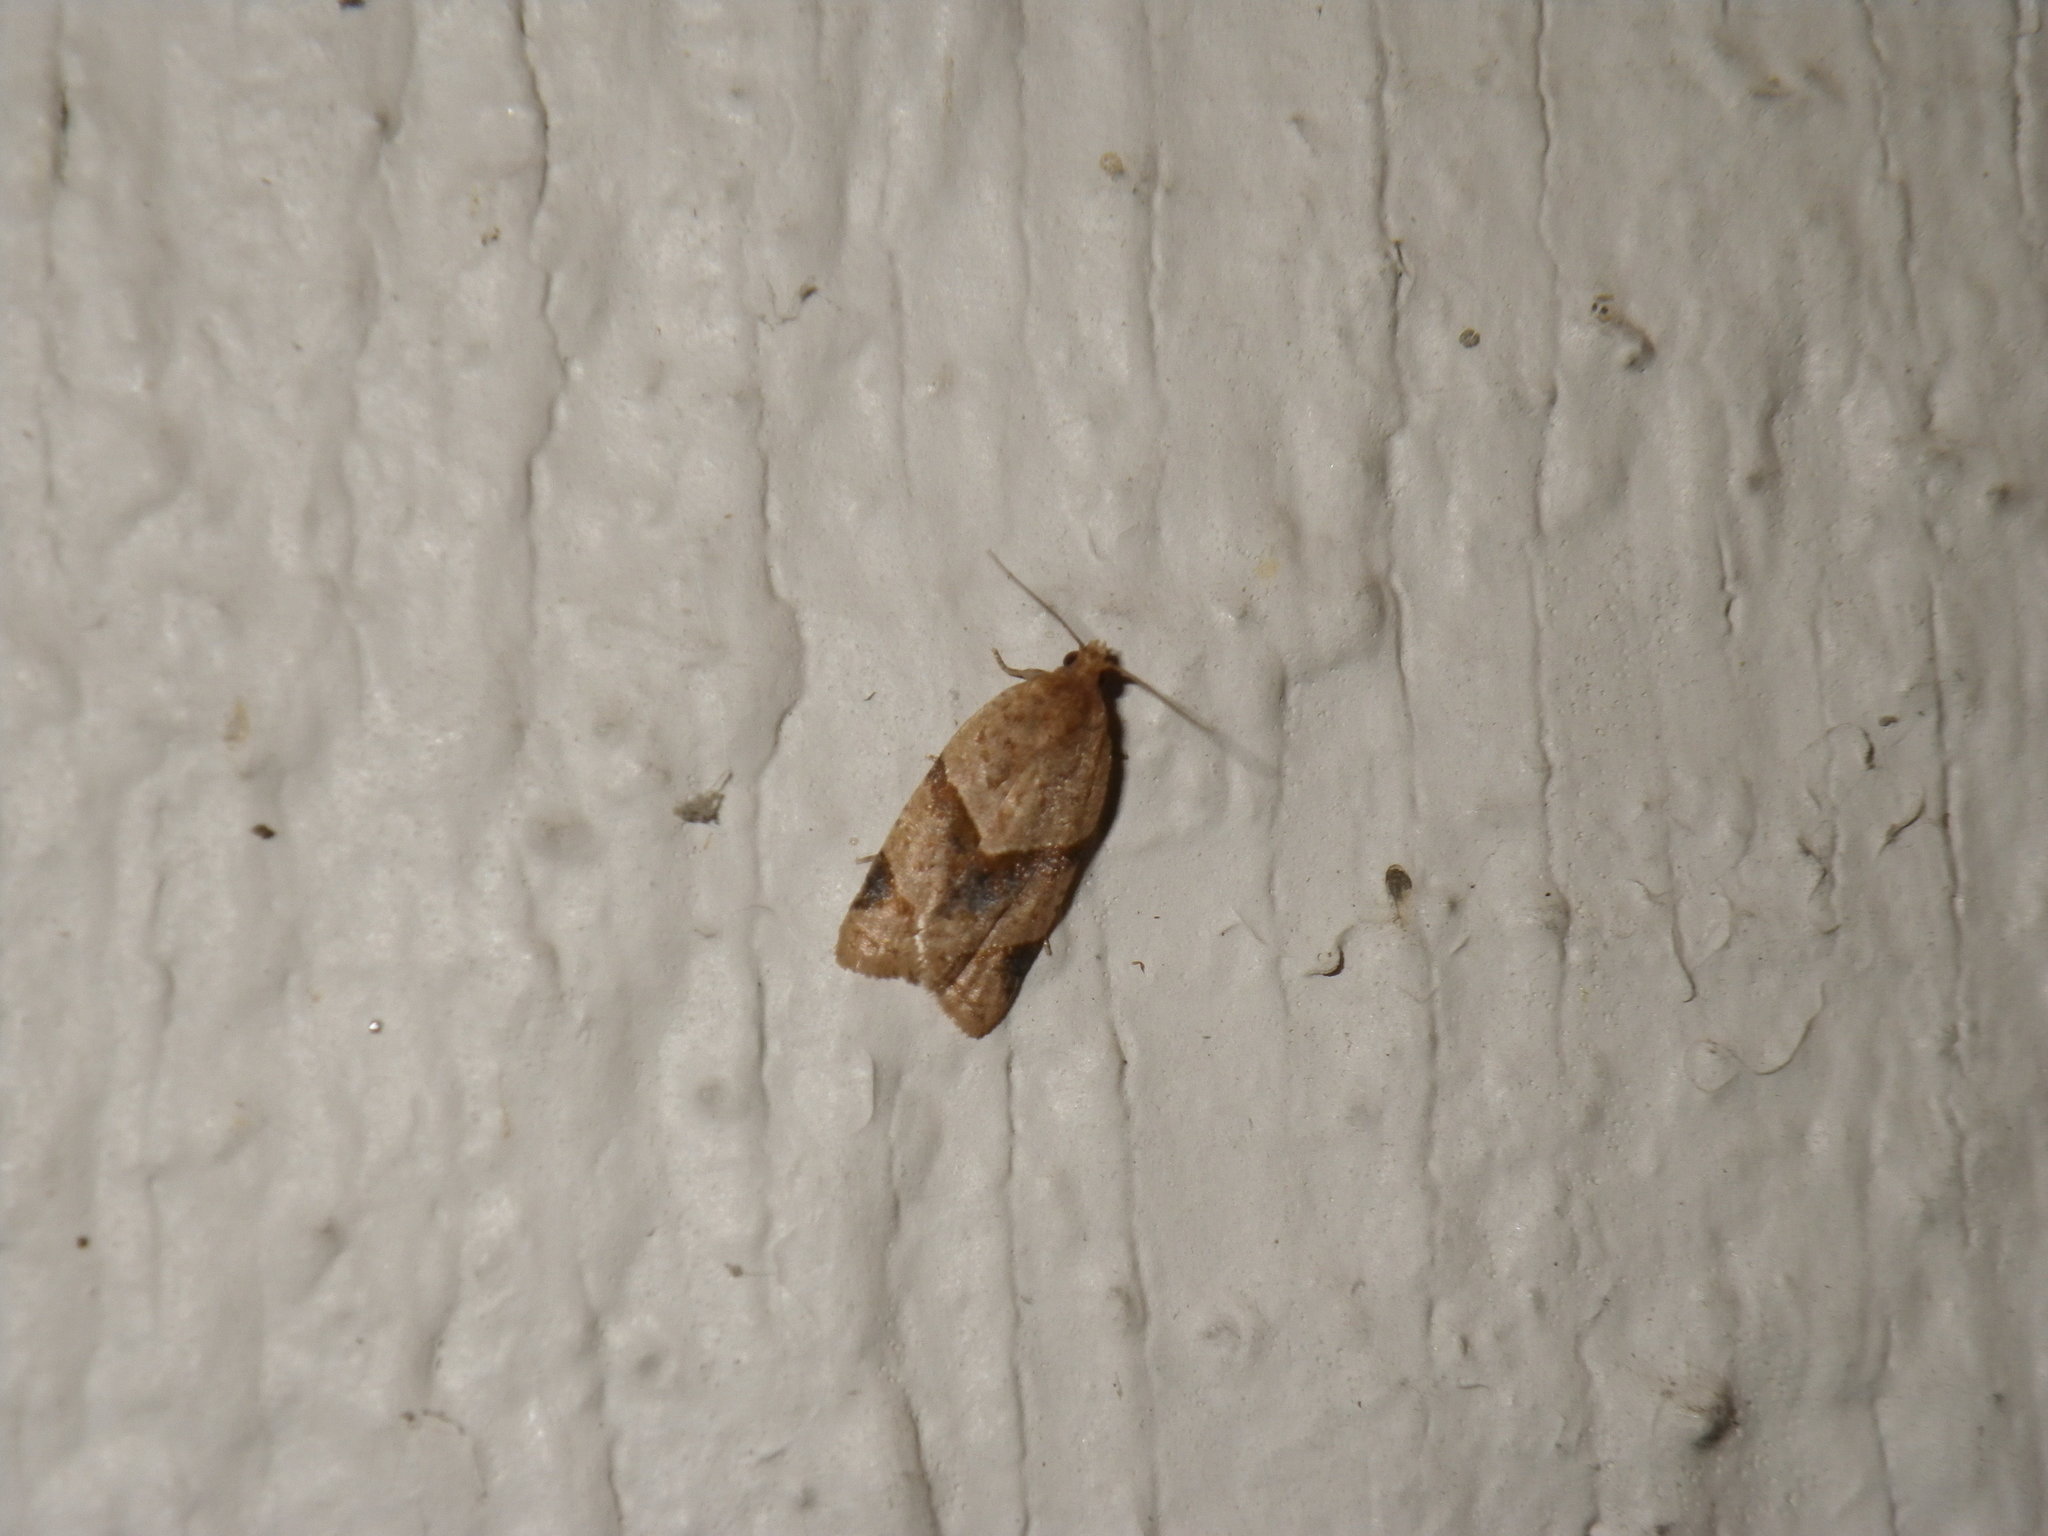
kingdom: Animalia
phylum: Arthropoda
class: Insecta
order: Lepidoptera
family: Tortricidae
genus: Clepsis
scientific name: Clepsis peritana
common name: Garden tortrix
